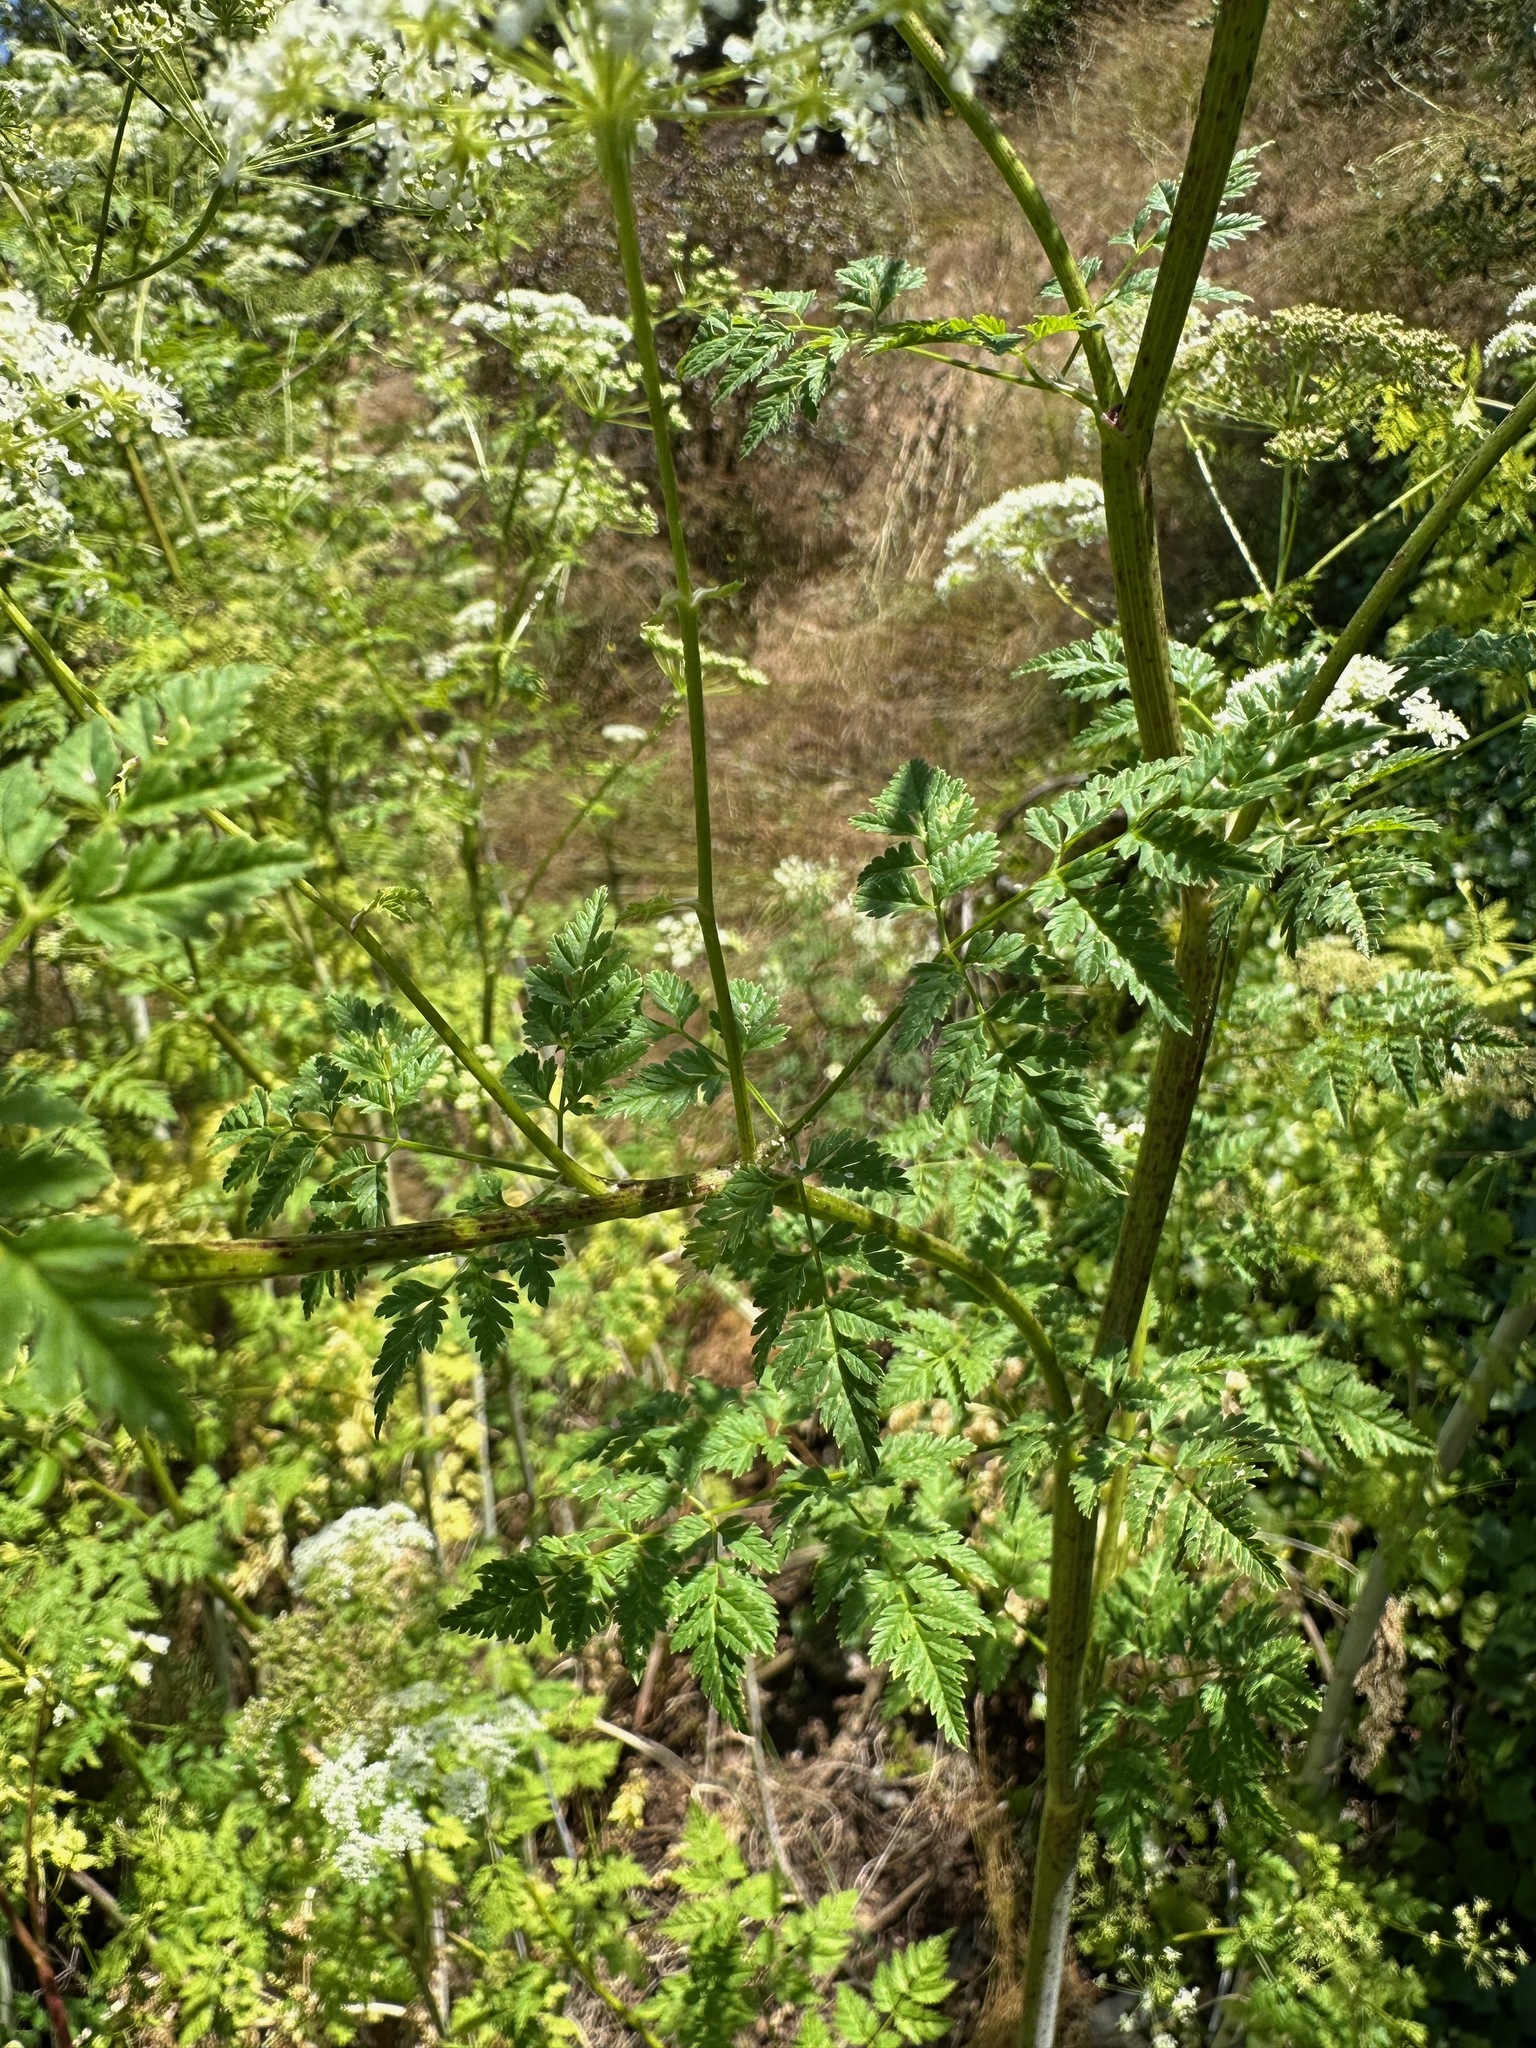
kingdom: Plantae
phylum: Tracheophyta
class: Magnoliopsida
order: Apiales
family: Apiaceae
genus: Conium
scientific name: Conium maculatum
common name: Hemlock
